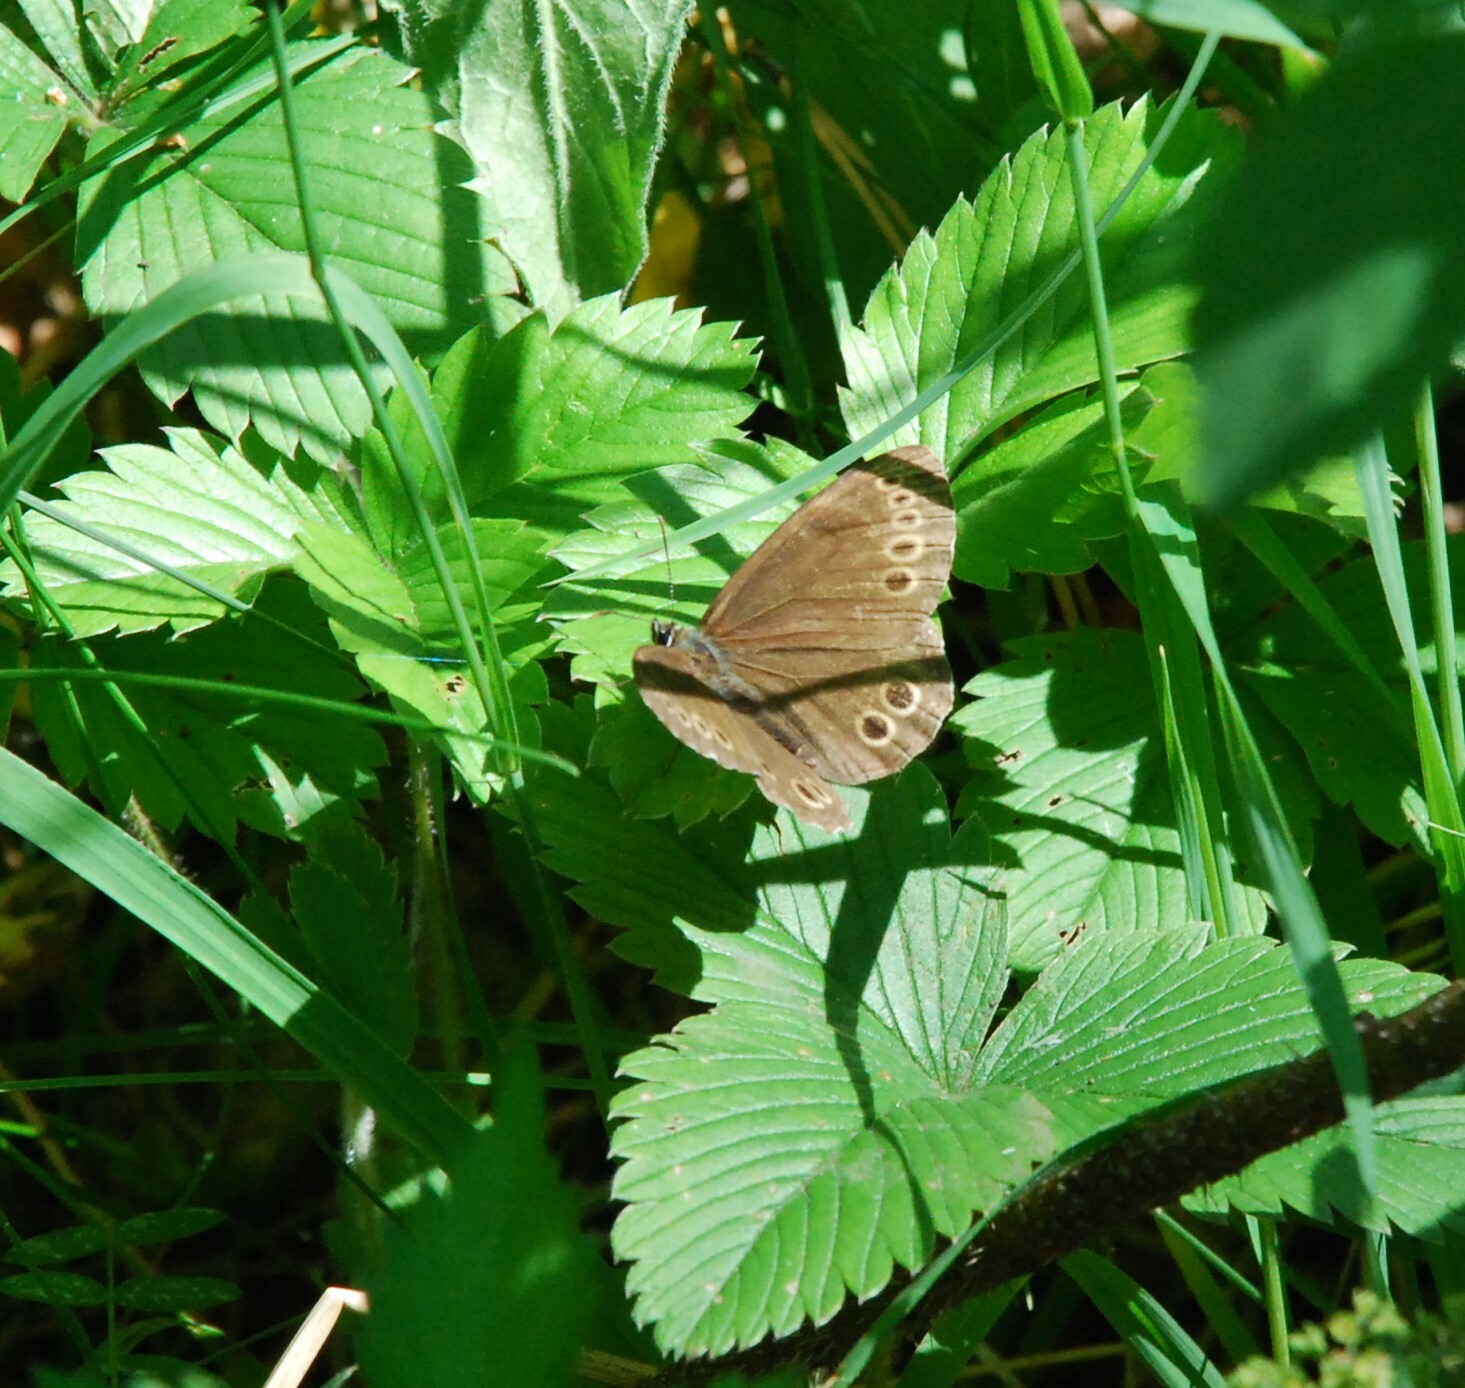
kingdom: Animalia
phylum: Arthropoda
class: Insecta
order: Lepidoptera
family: Nymphalidae
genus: Pararge
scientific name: Pararge Lopinga achine
